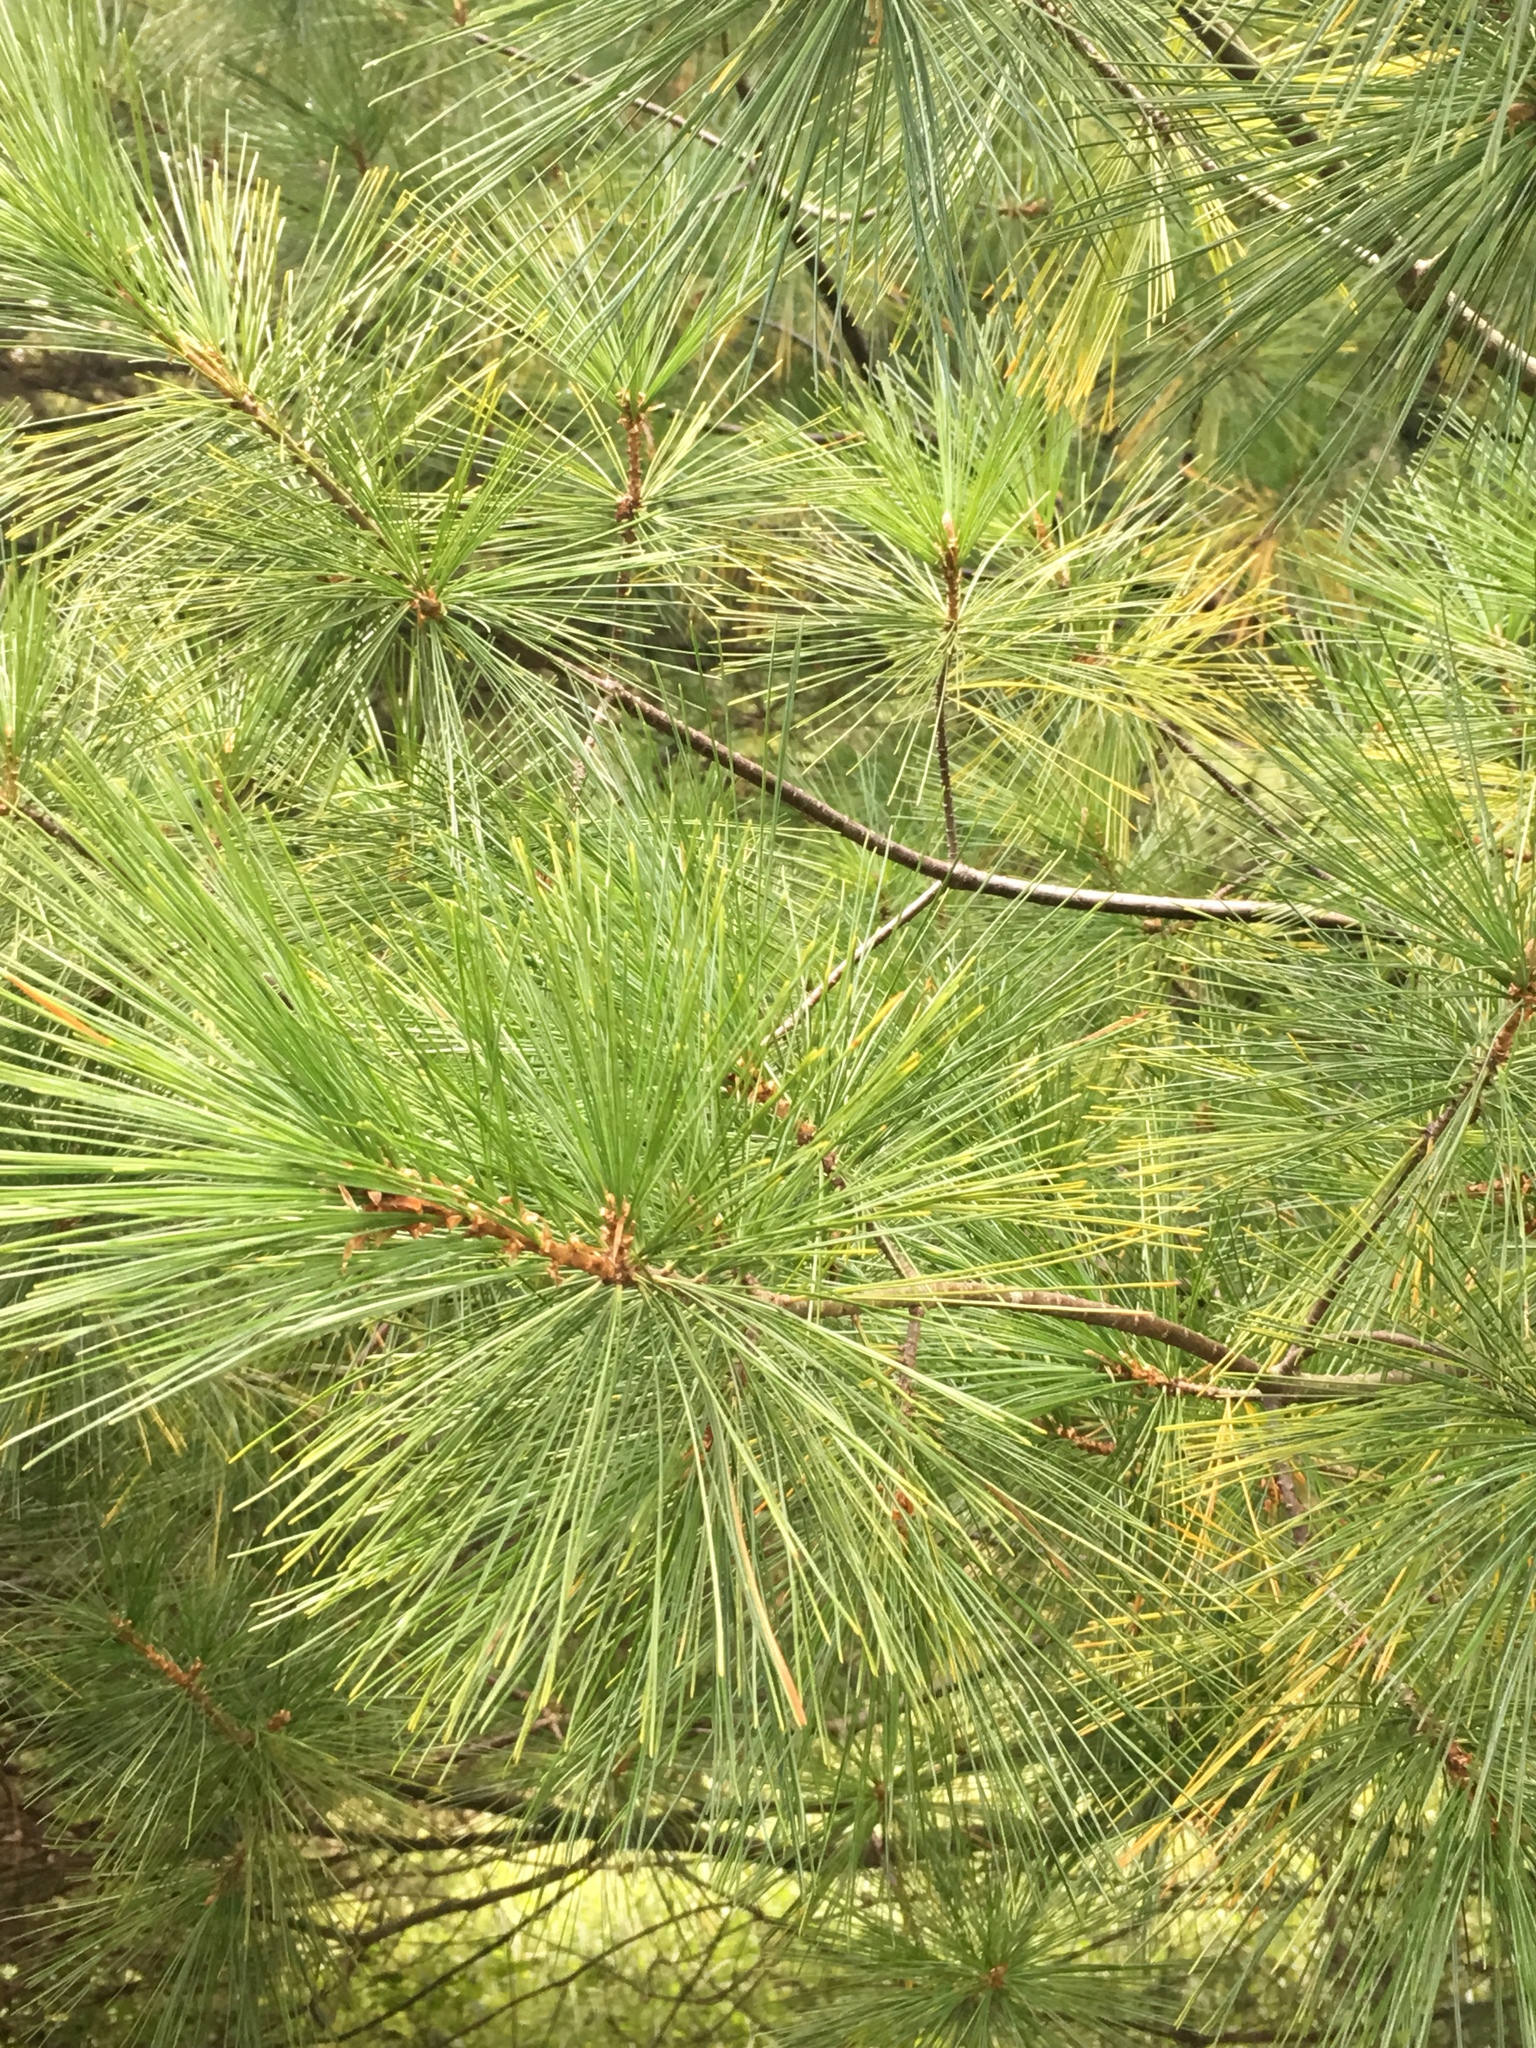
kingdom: Plantae
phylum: Tracheophyta
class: Pinopsida
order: Pinales
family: Pinaceae
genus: Pinus
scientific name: Pinus strobus
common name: Weymouth pine
